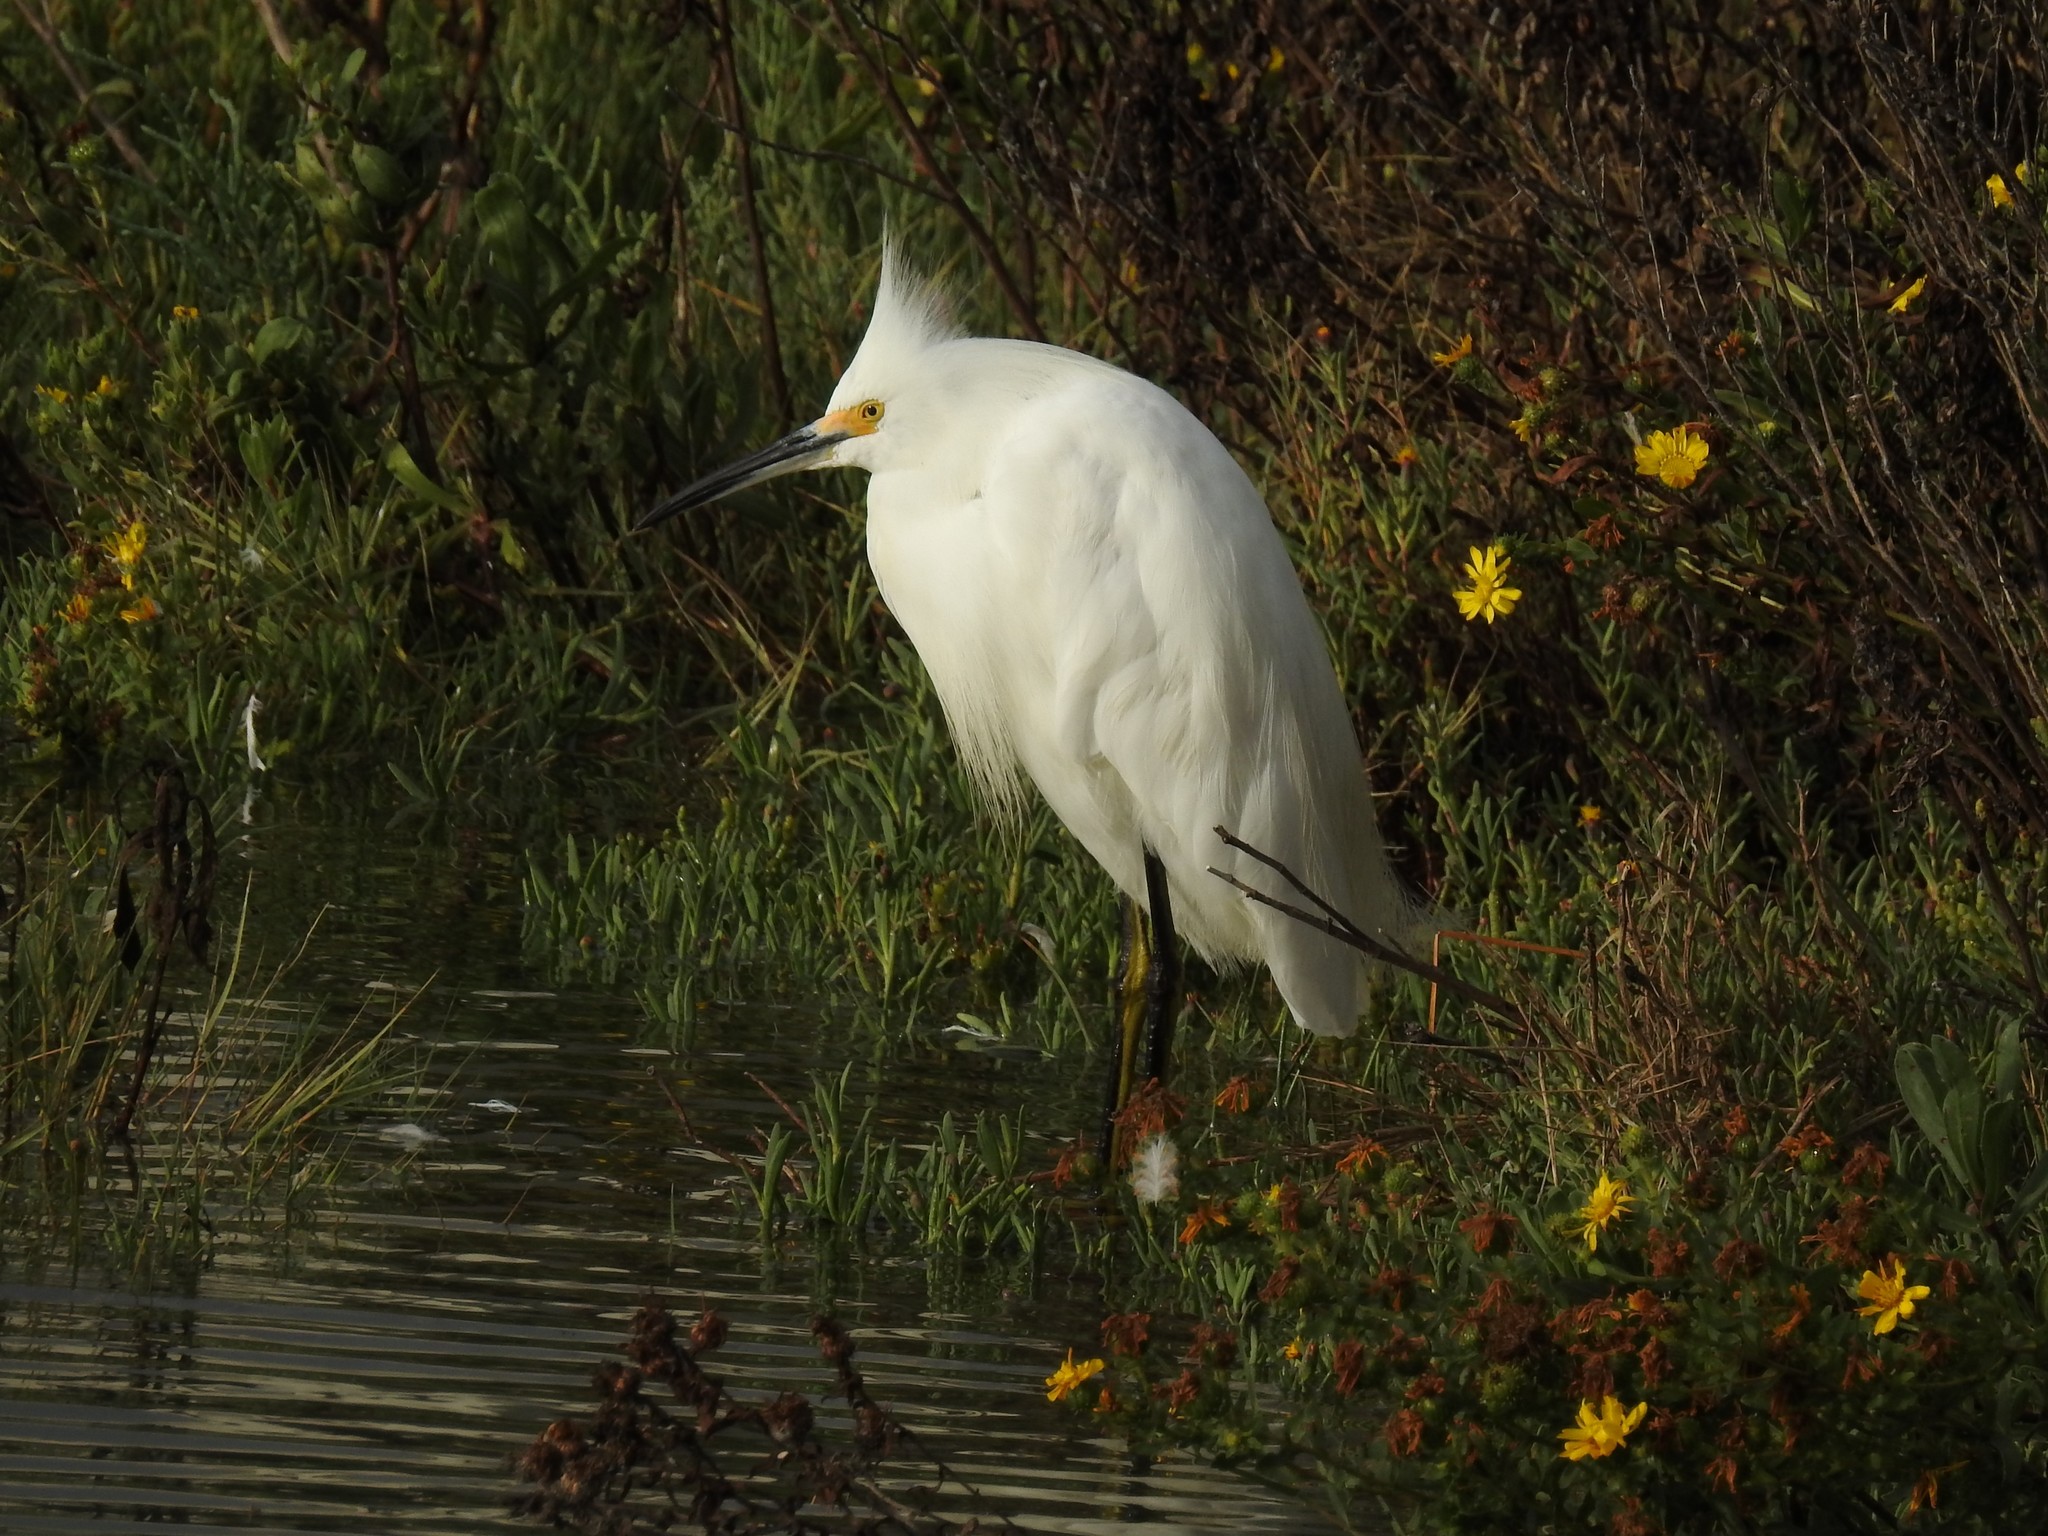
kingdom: Animalia
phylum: Chordata
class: Aves
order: Pelecaniformes
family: Ardeidae
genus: Egretta
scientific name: Egretta thula
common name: Snowy egret
